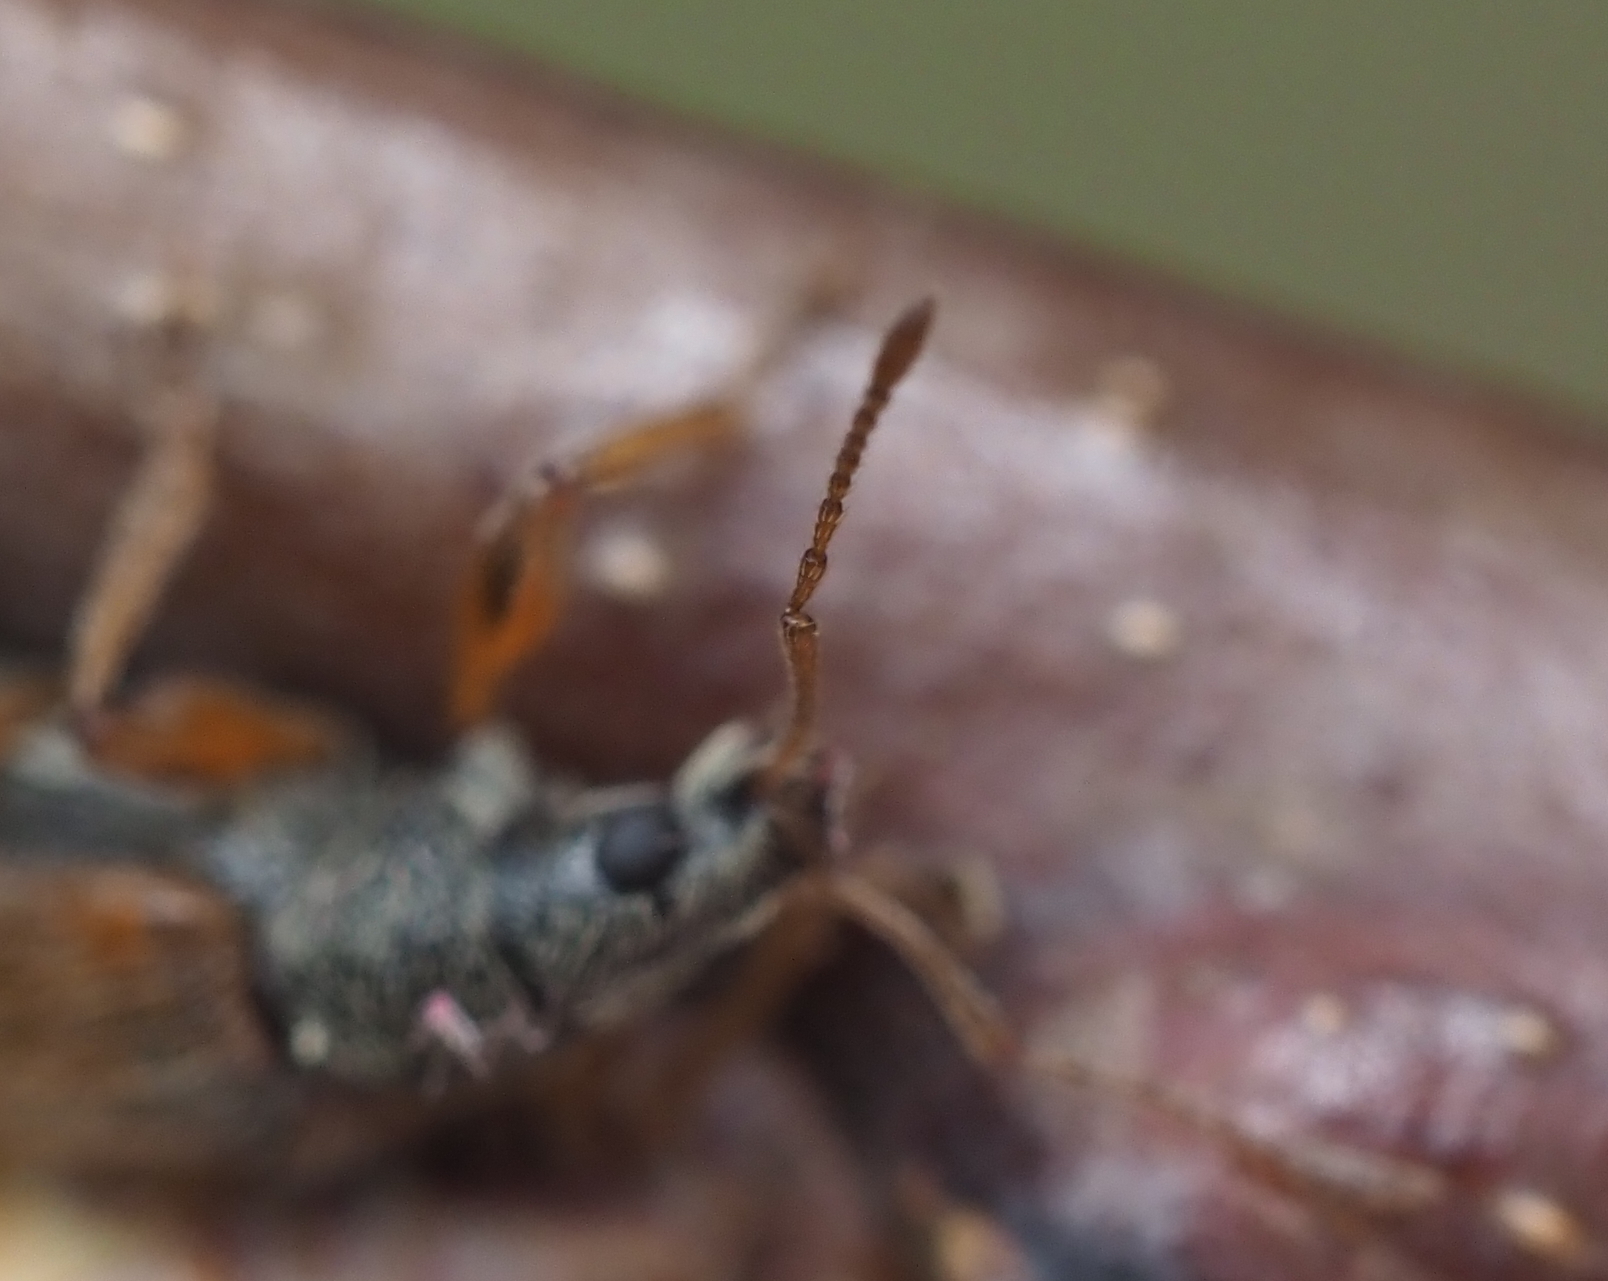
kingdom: Animalia
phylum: Arthropoda
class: Insecta
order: Coleoptera
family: Curculionidae
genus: Phyllobius
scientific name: Phyllobius oblongus
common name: Brown leaf weevil
